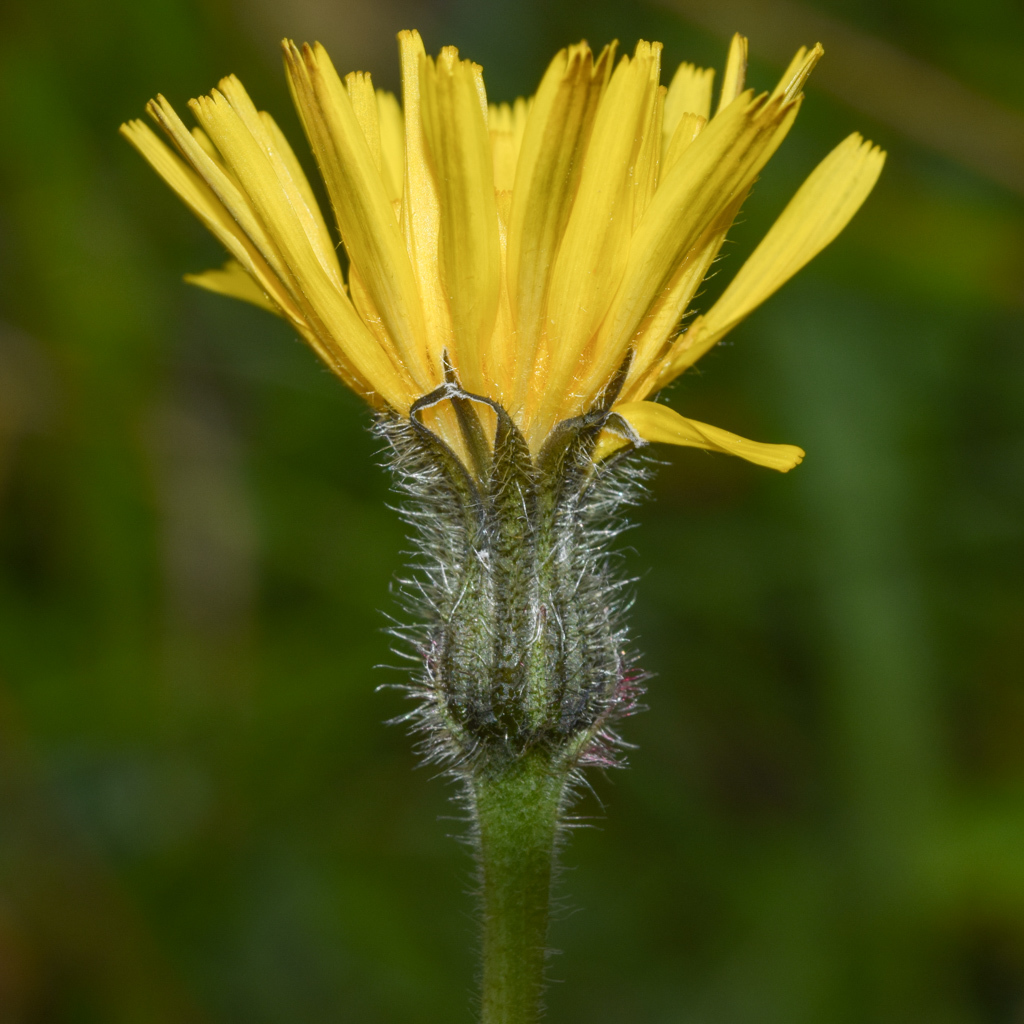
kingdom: Plantae
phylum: Tracheophyta
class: Magnoliopsida
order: Asterales
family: Asteraceae
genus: Leontodon
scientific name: Leontodon hispidus
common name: Rough hawkbit
